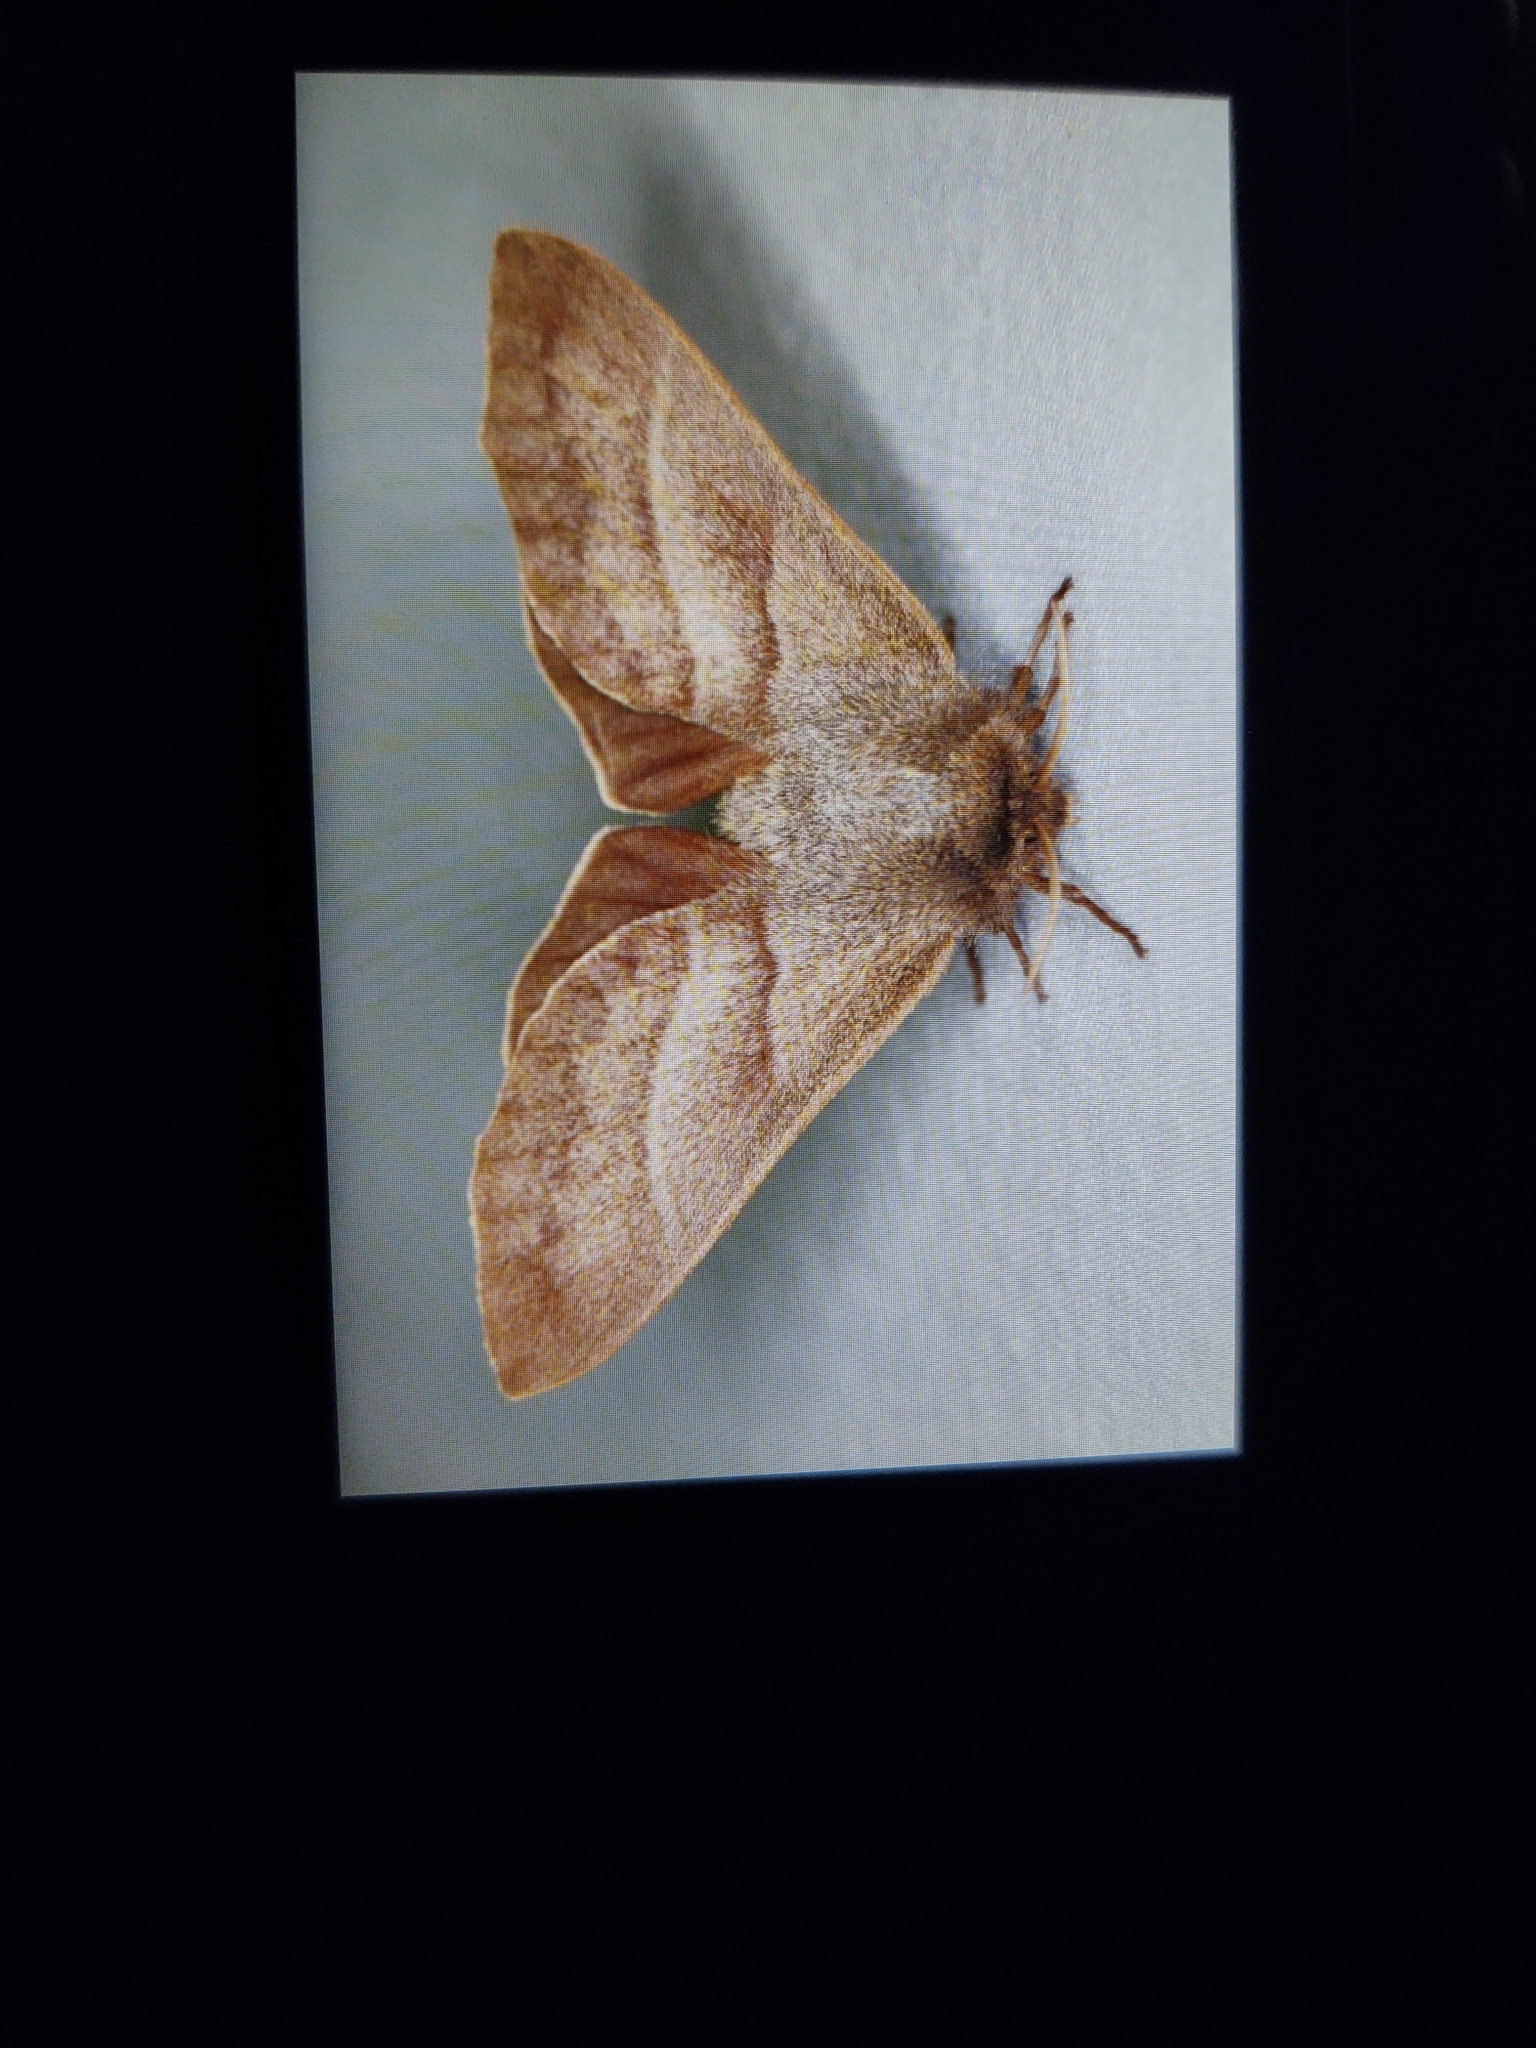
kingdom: Animalia
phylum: Arthropoda
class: Insecta
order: Lepidoptera
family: Lasiocampidae
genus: Macrothylacia
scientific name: Macrothylacia rubi
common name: Fox moth
